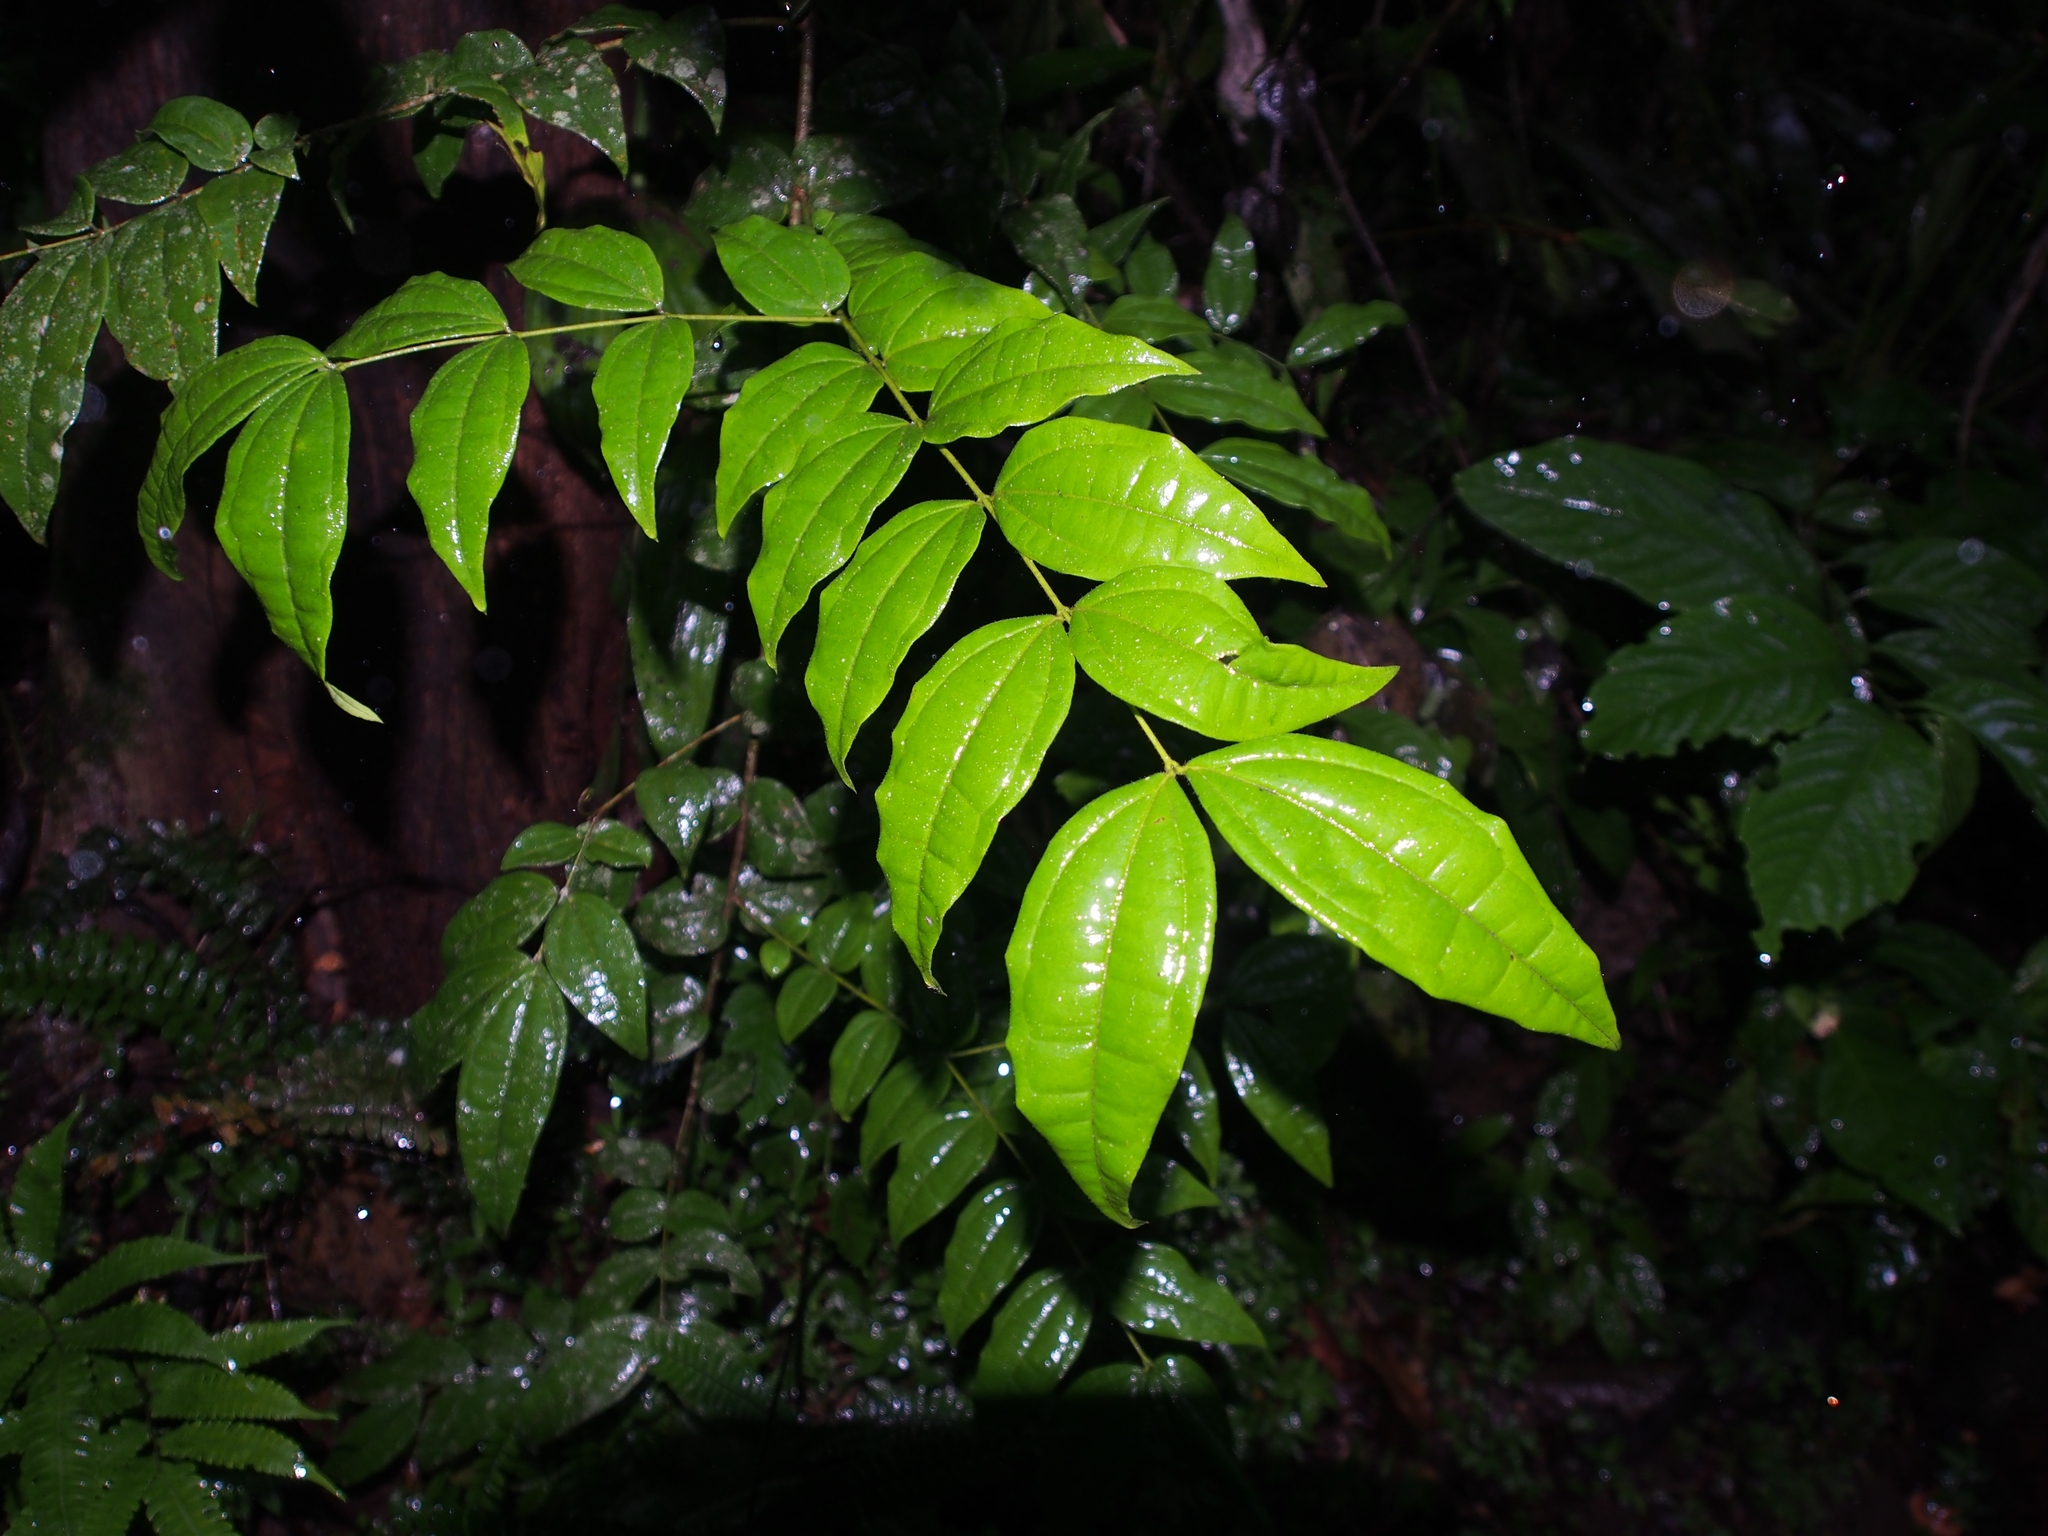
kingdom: Plantae
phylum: Tracheophyta
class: Magnoliopsida
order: Gentianales
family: Loganiaceae
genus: Strychnos
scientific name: Strychnos panamensis
